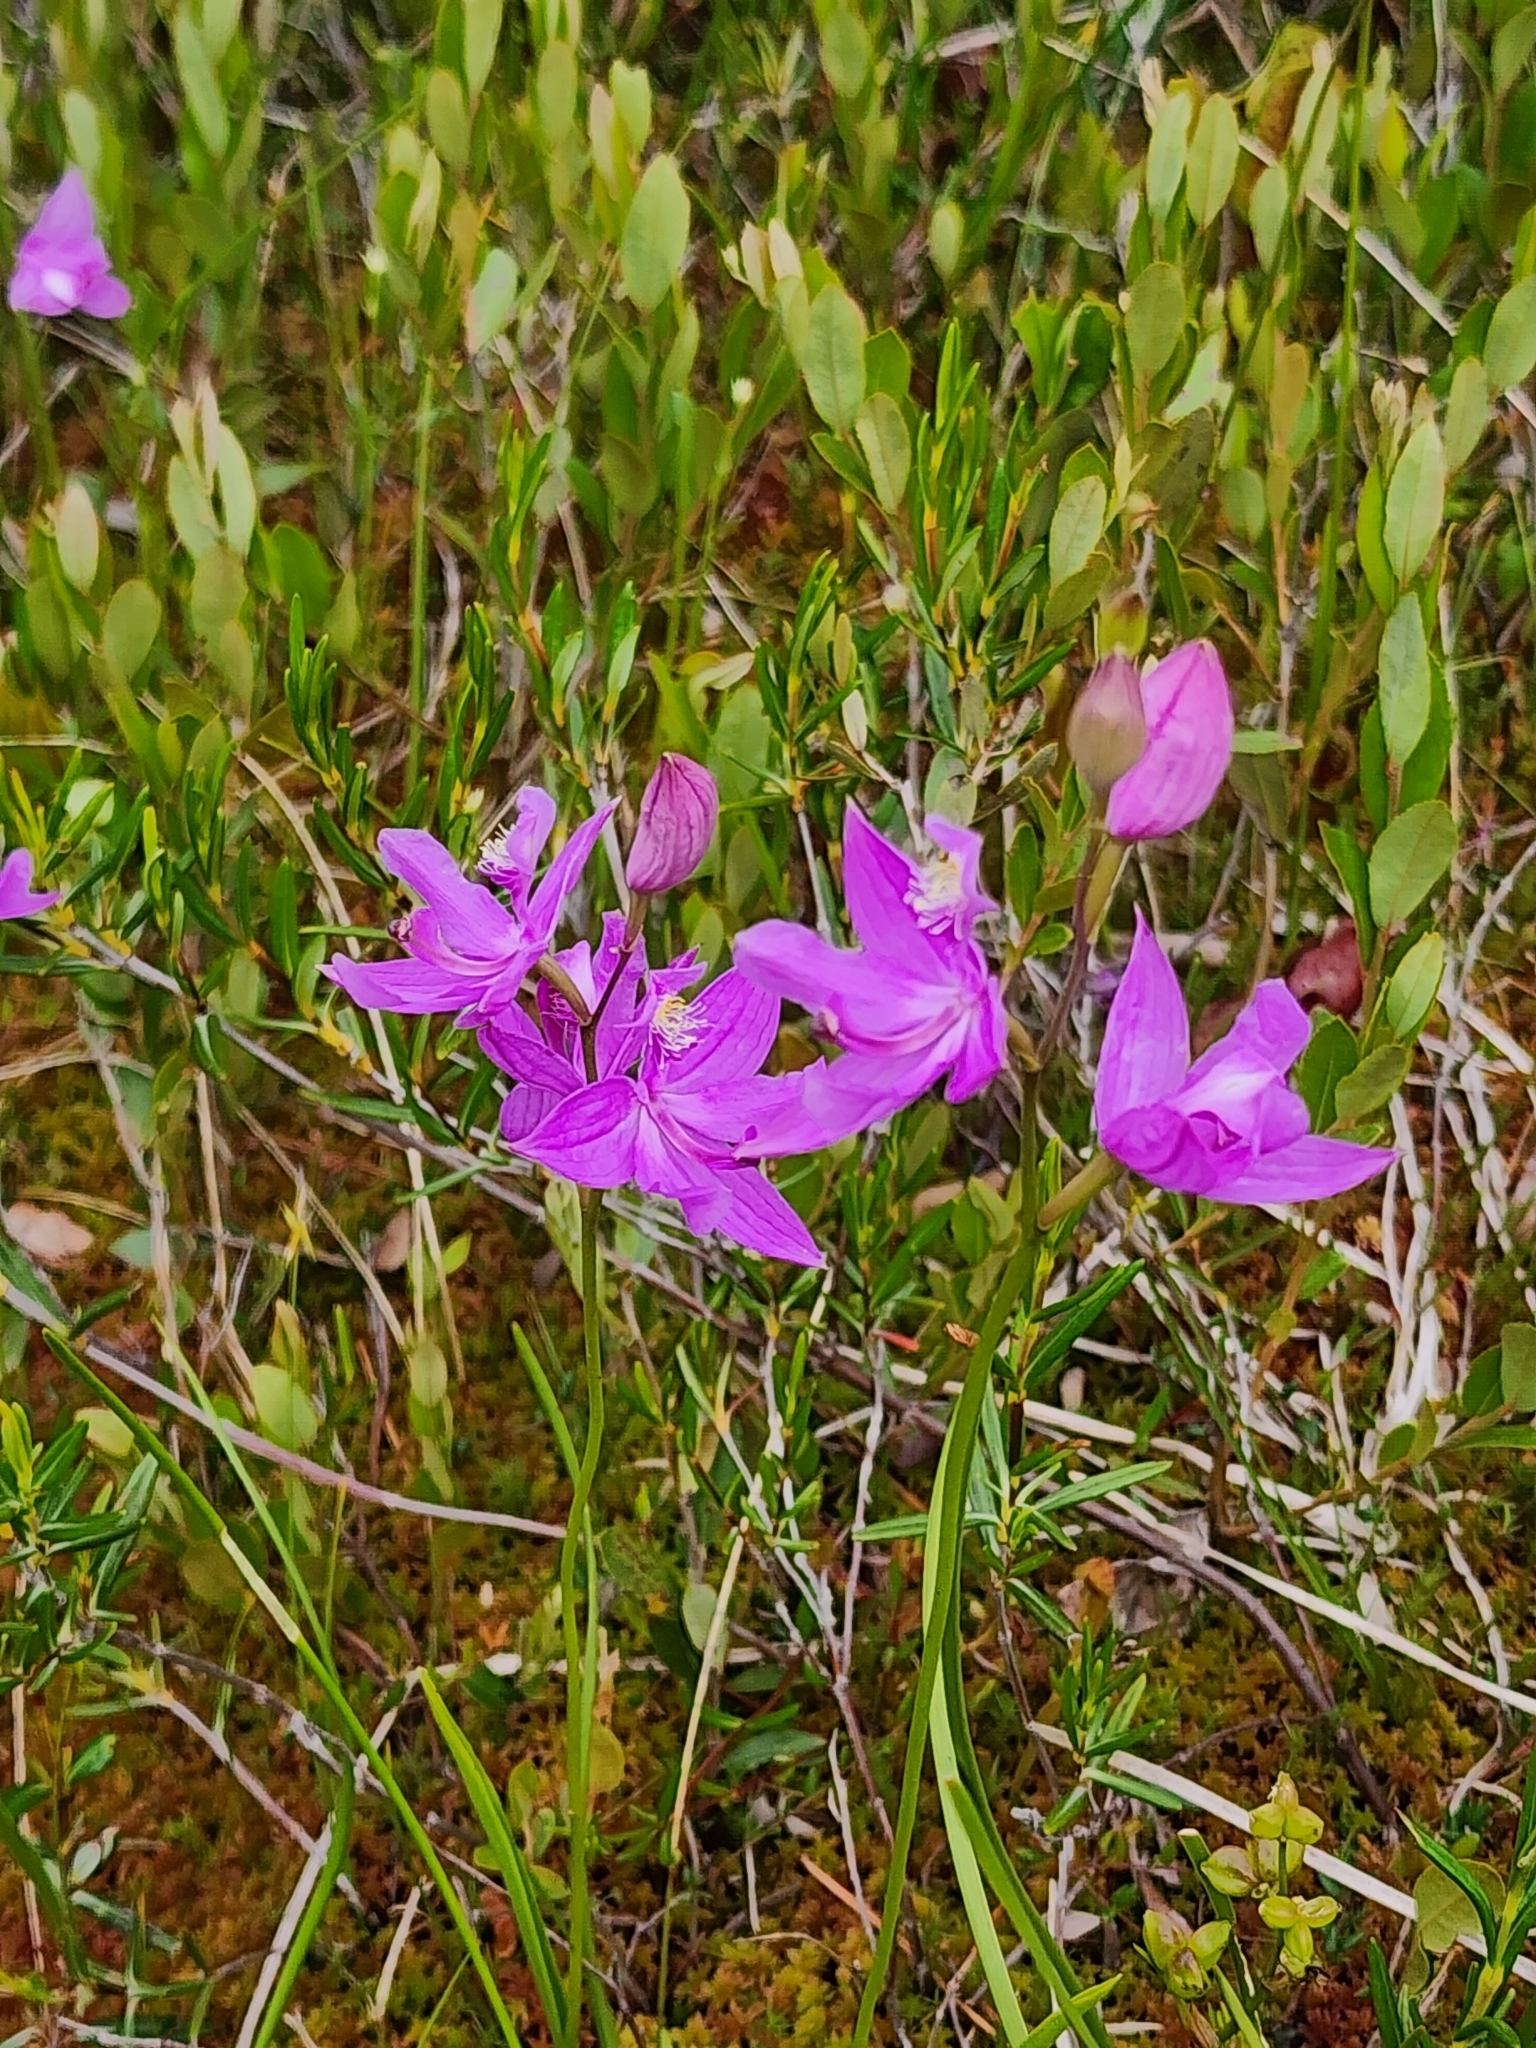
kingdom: Plantae
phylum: Tracheophyta
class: Liliopsida
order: Asparagales
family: Orchidaceae
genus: Calopogon
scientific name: Calopogon tuberosus
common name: Grass-pink
